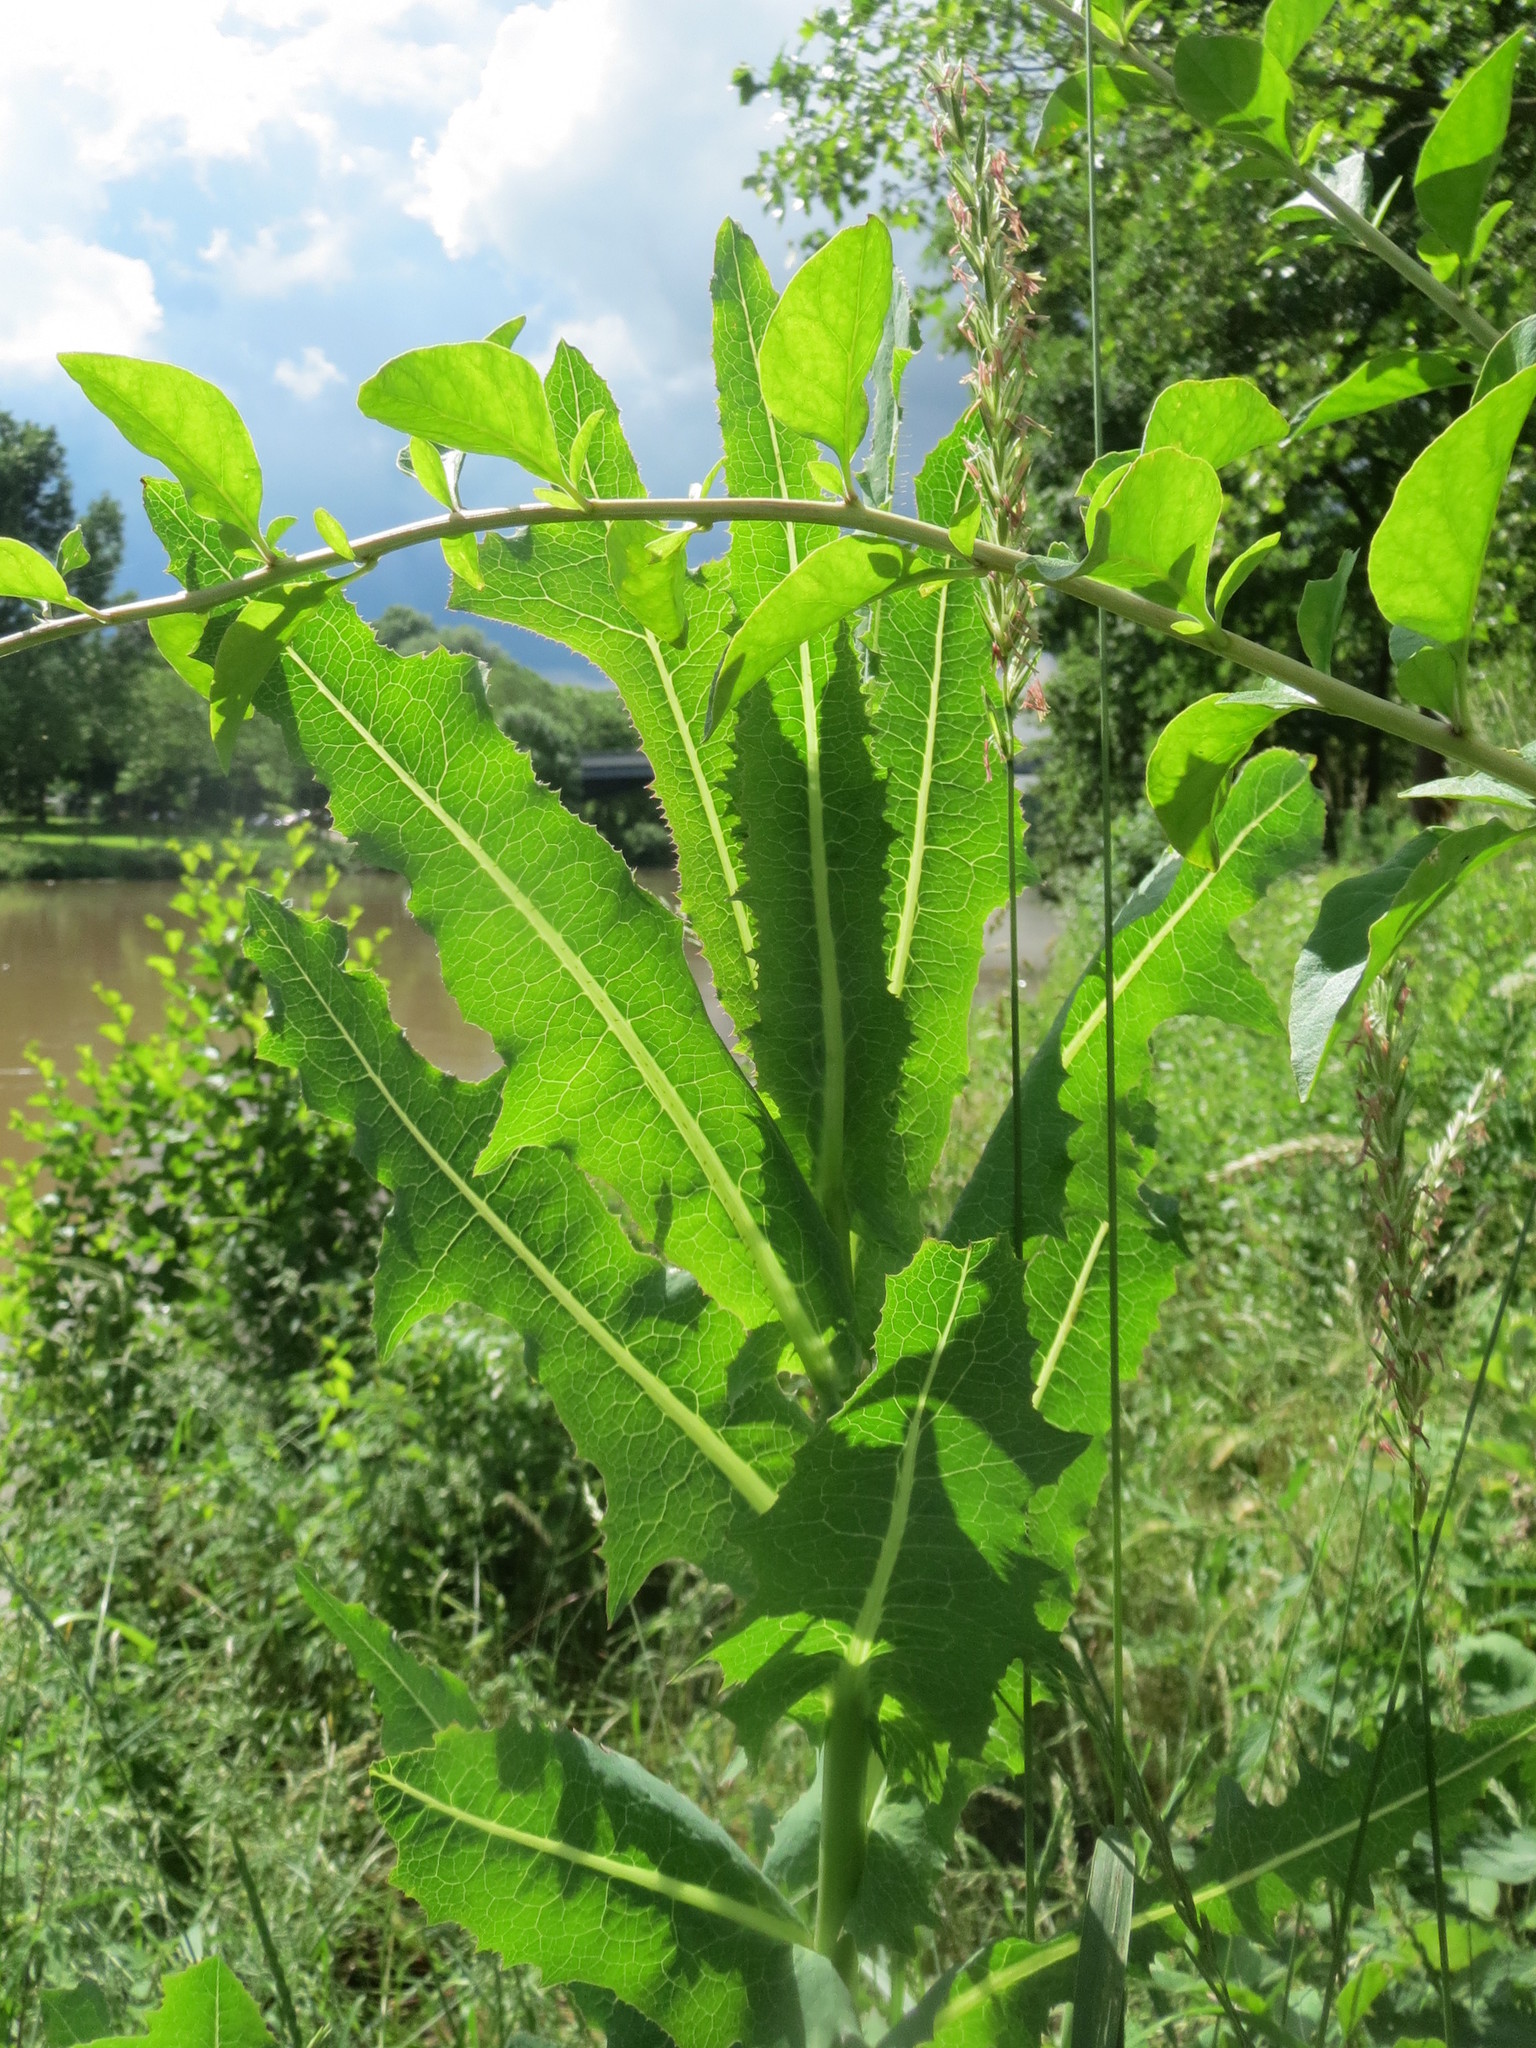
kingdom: Plantae
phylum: Tracheophyta
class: Magnoliopsida
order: Asterales
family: Asteraceae
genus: Lactuca
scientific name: Lactuca serriola
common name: Prickly lettuce
